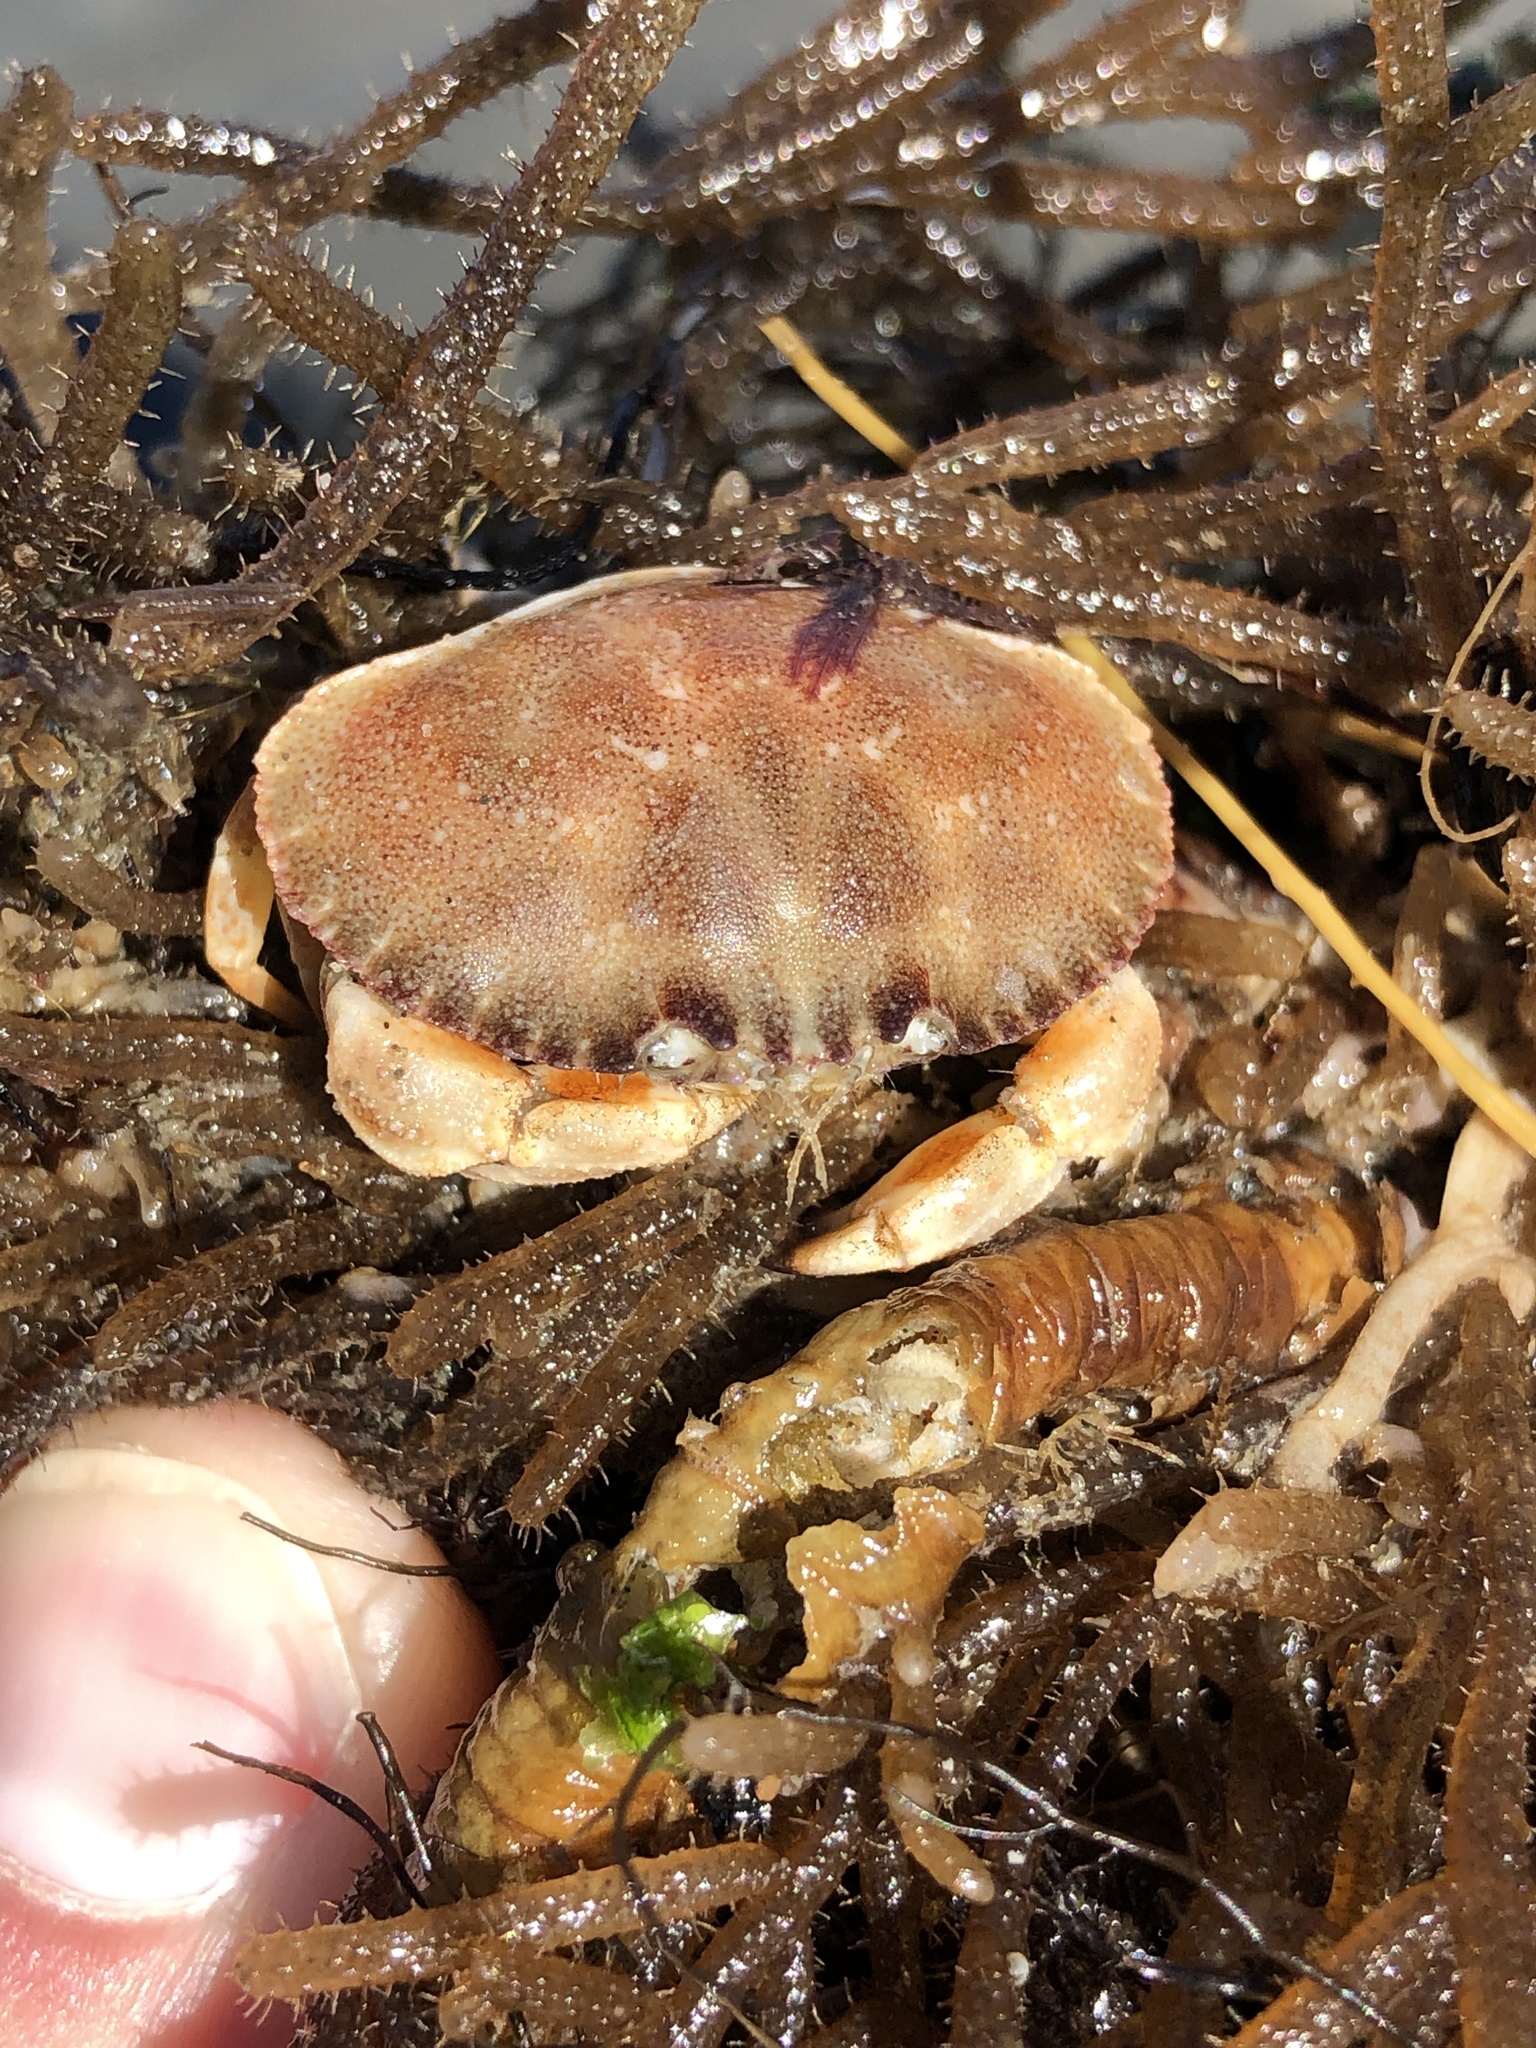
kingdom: Animalia
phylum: Arthropoda
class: Malacostraca
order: Decapoda
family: Cancridae
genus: Metacarcinus
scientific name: Metacarcinus novaezelandiae
